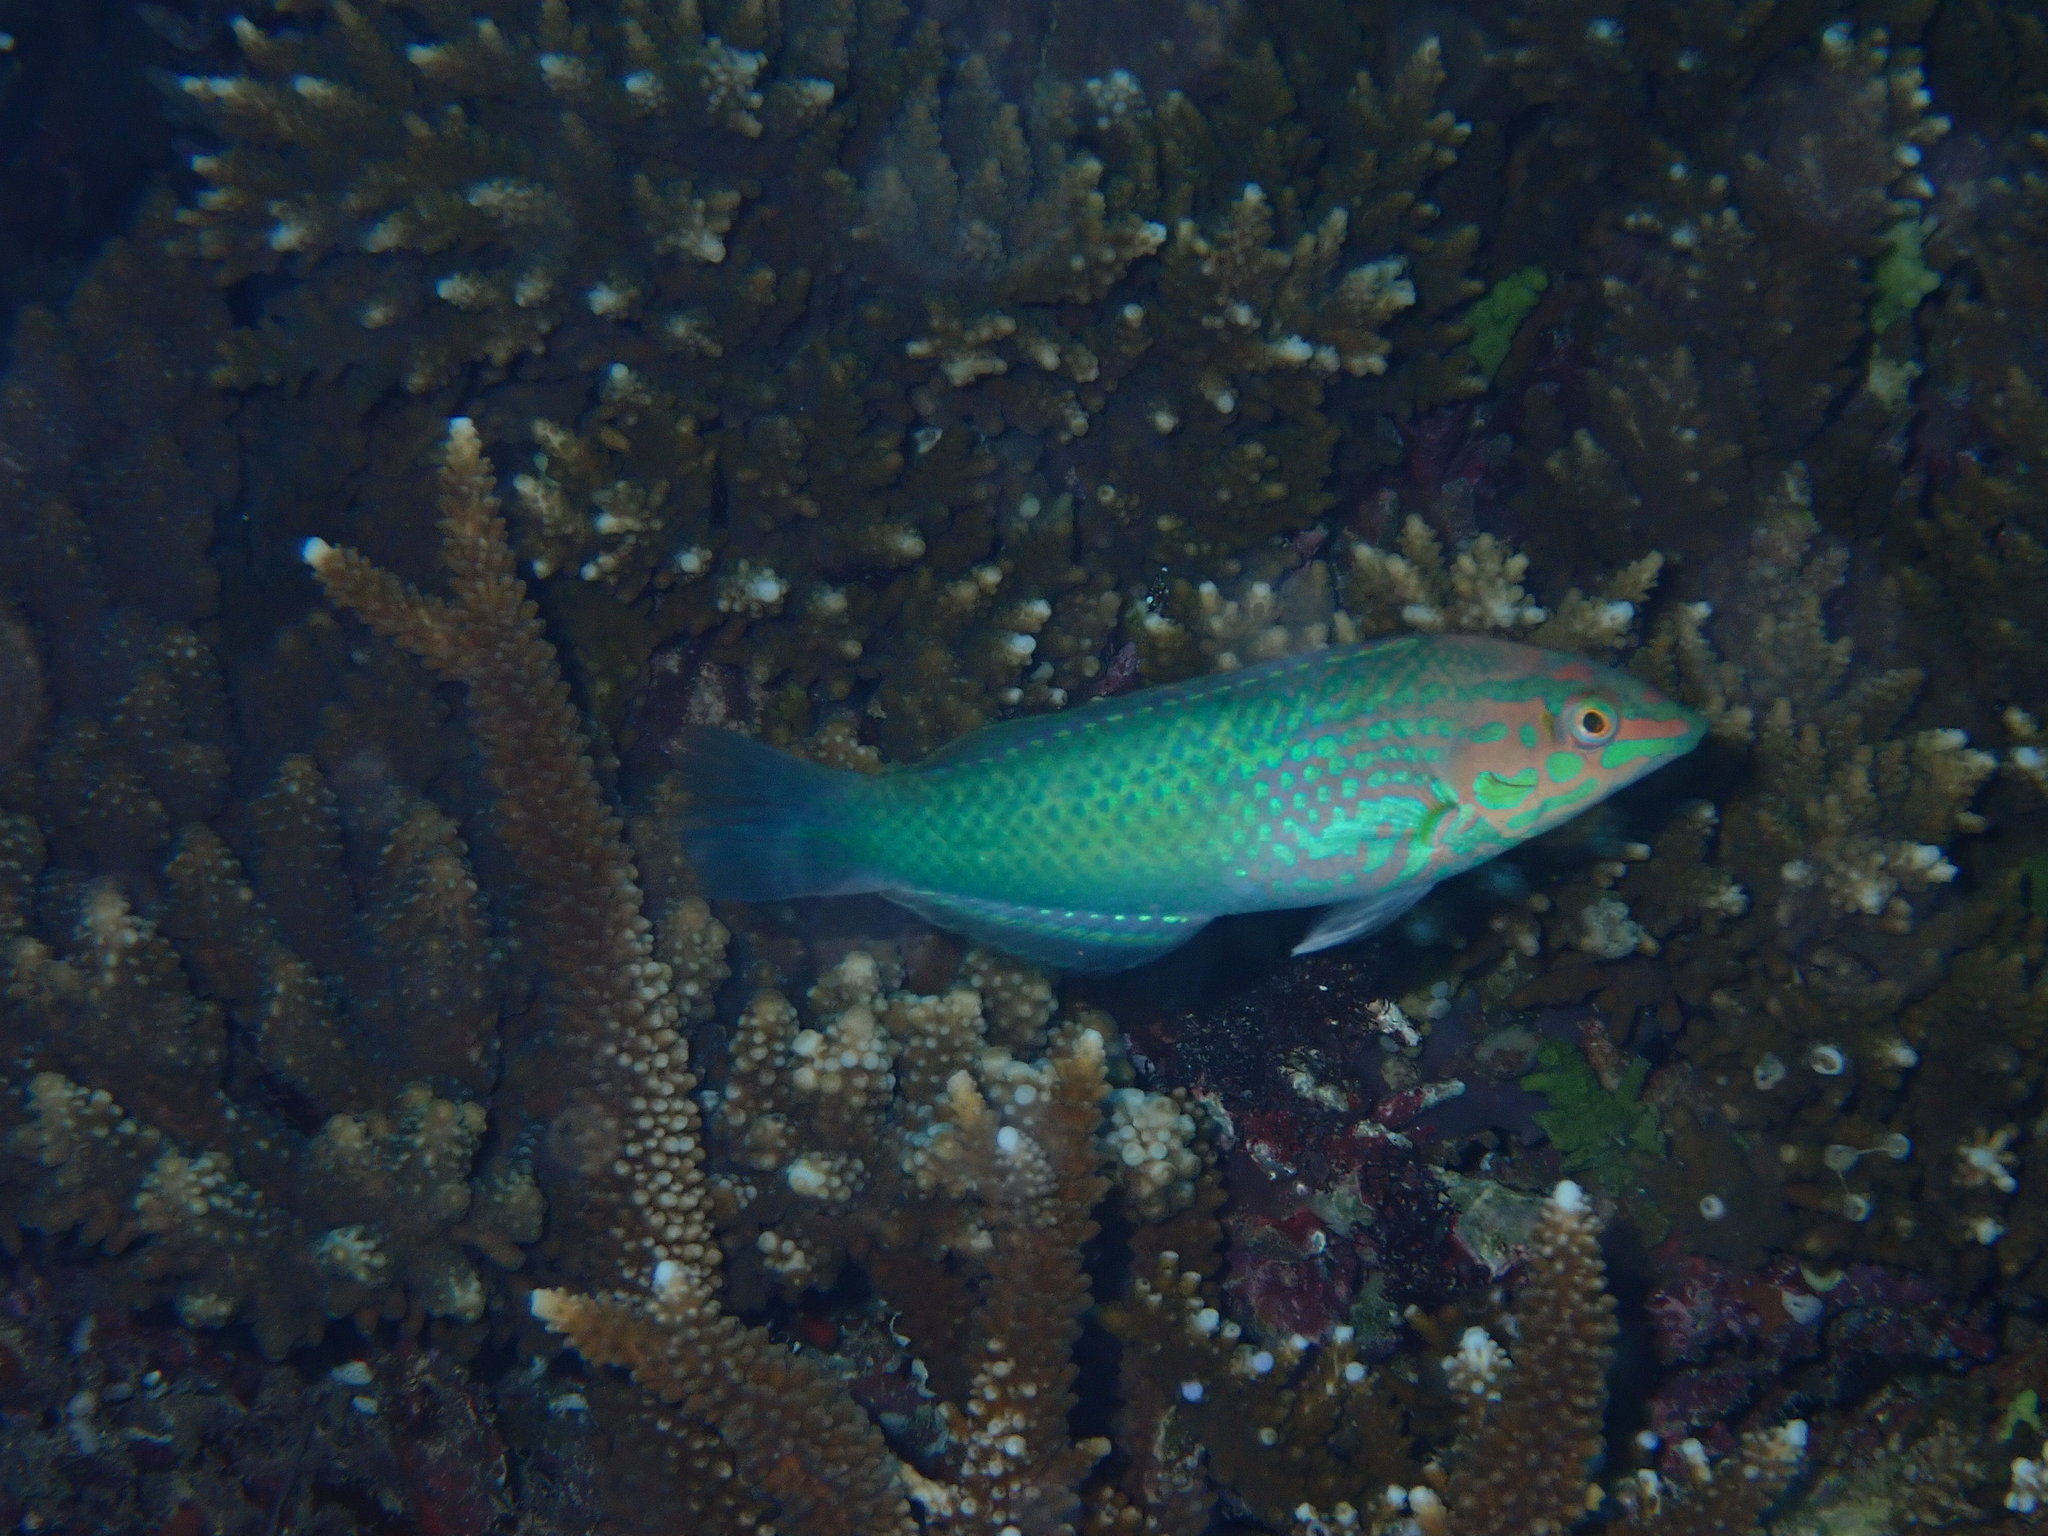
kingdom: Animalia
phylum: Chordata
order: Perciformes
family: Labridae
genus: Halichoeres
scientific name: Halichoeres chloropterus
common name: Pastel-green wrasse
